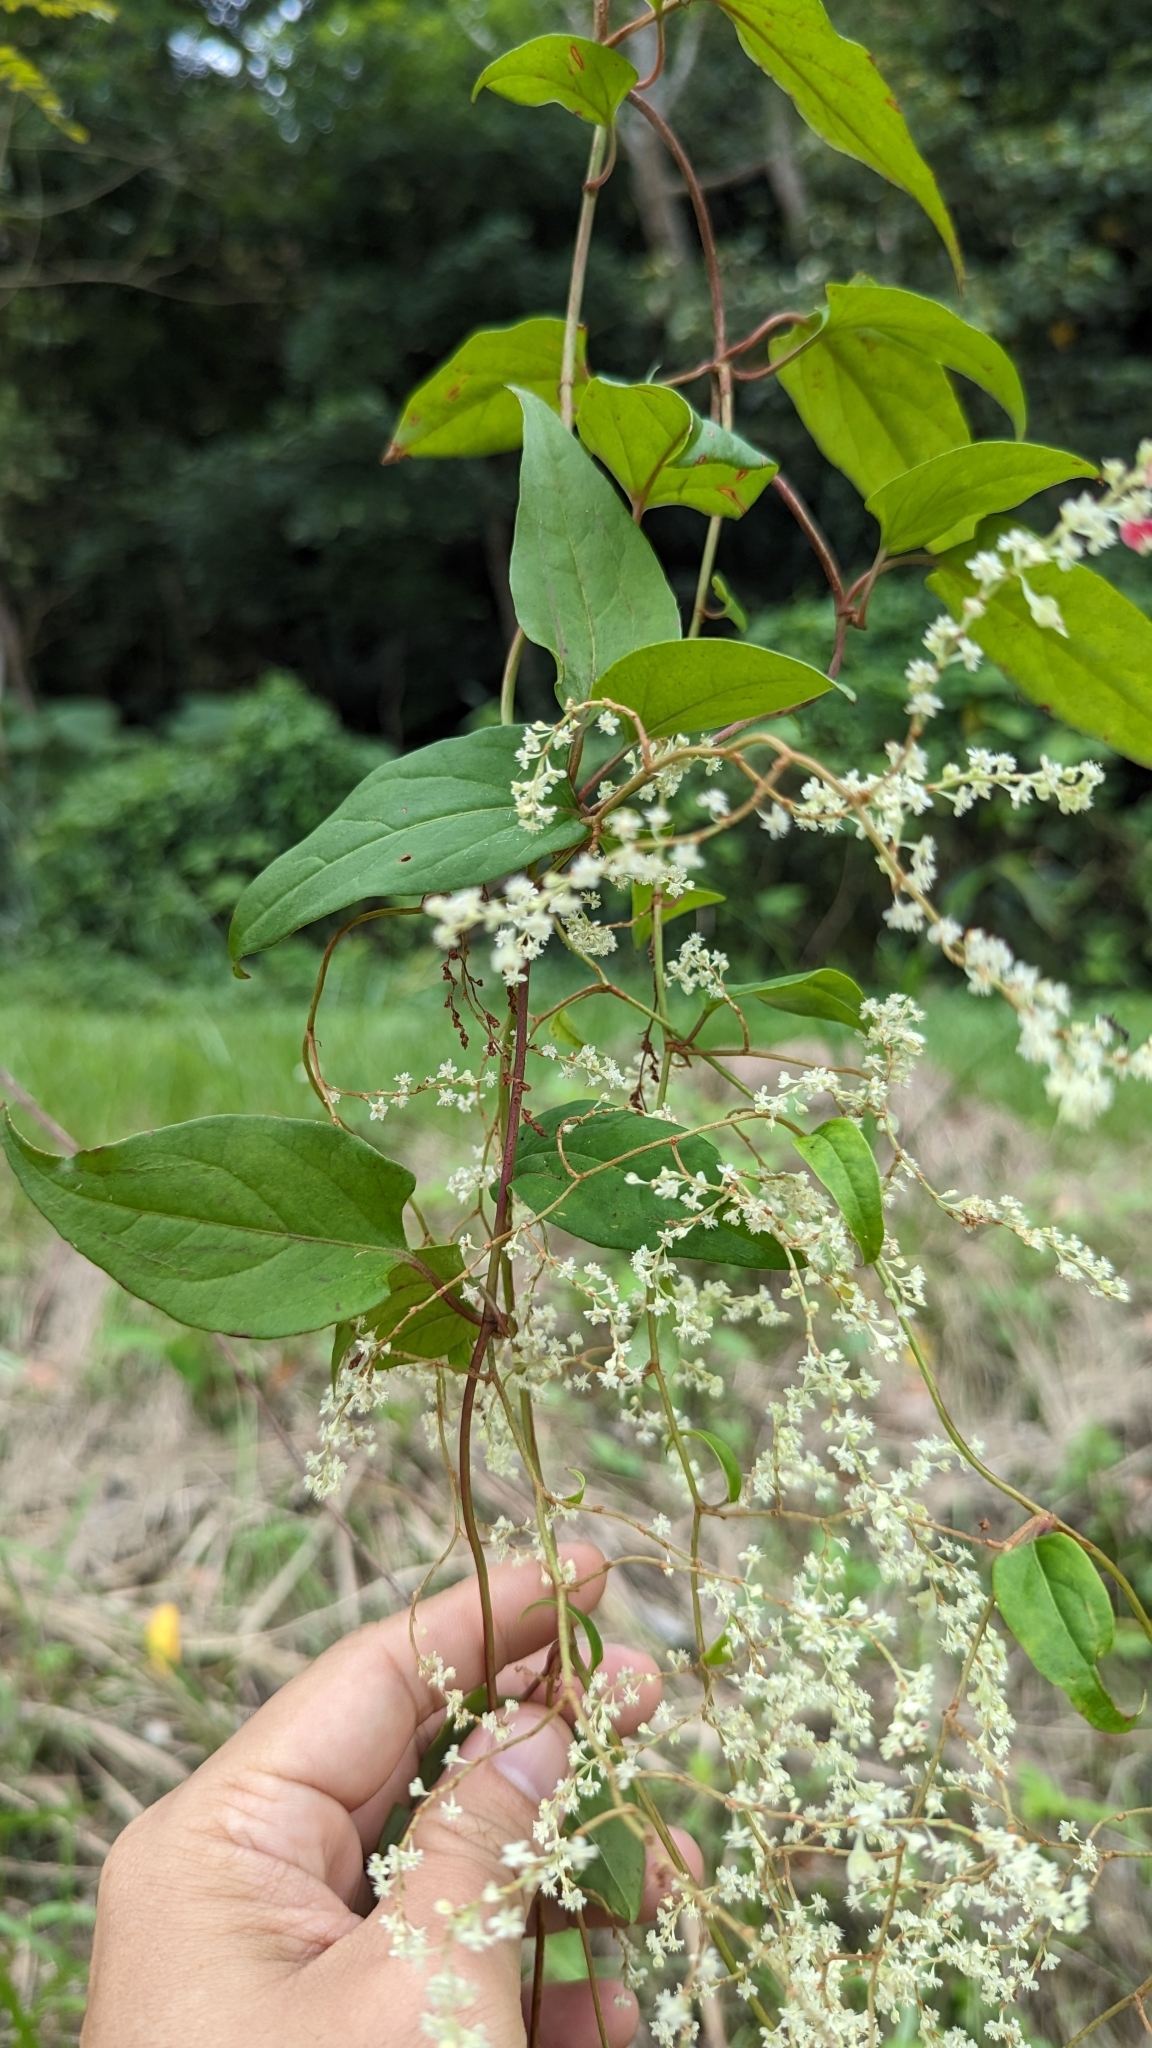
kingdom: Plantae
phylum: Tracheophyta
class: Magnoliopsida
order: Caryophyllales
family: Polygonaceae
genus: Reynoutria
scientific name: Reynoutria multiflora
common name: Chinese fleeceflower
